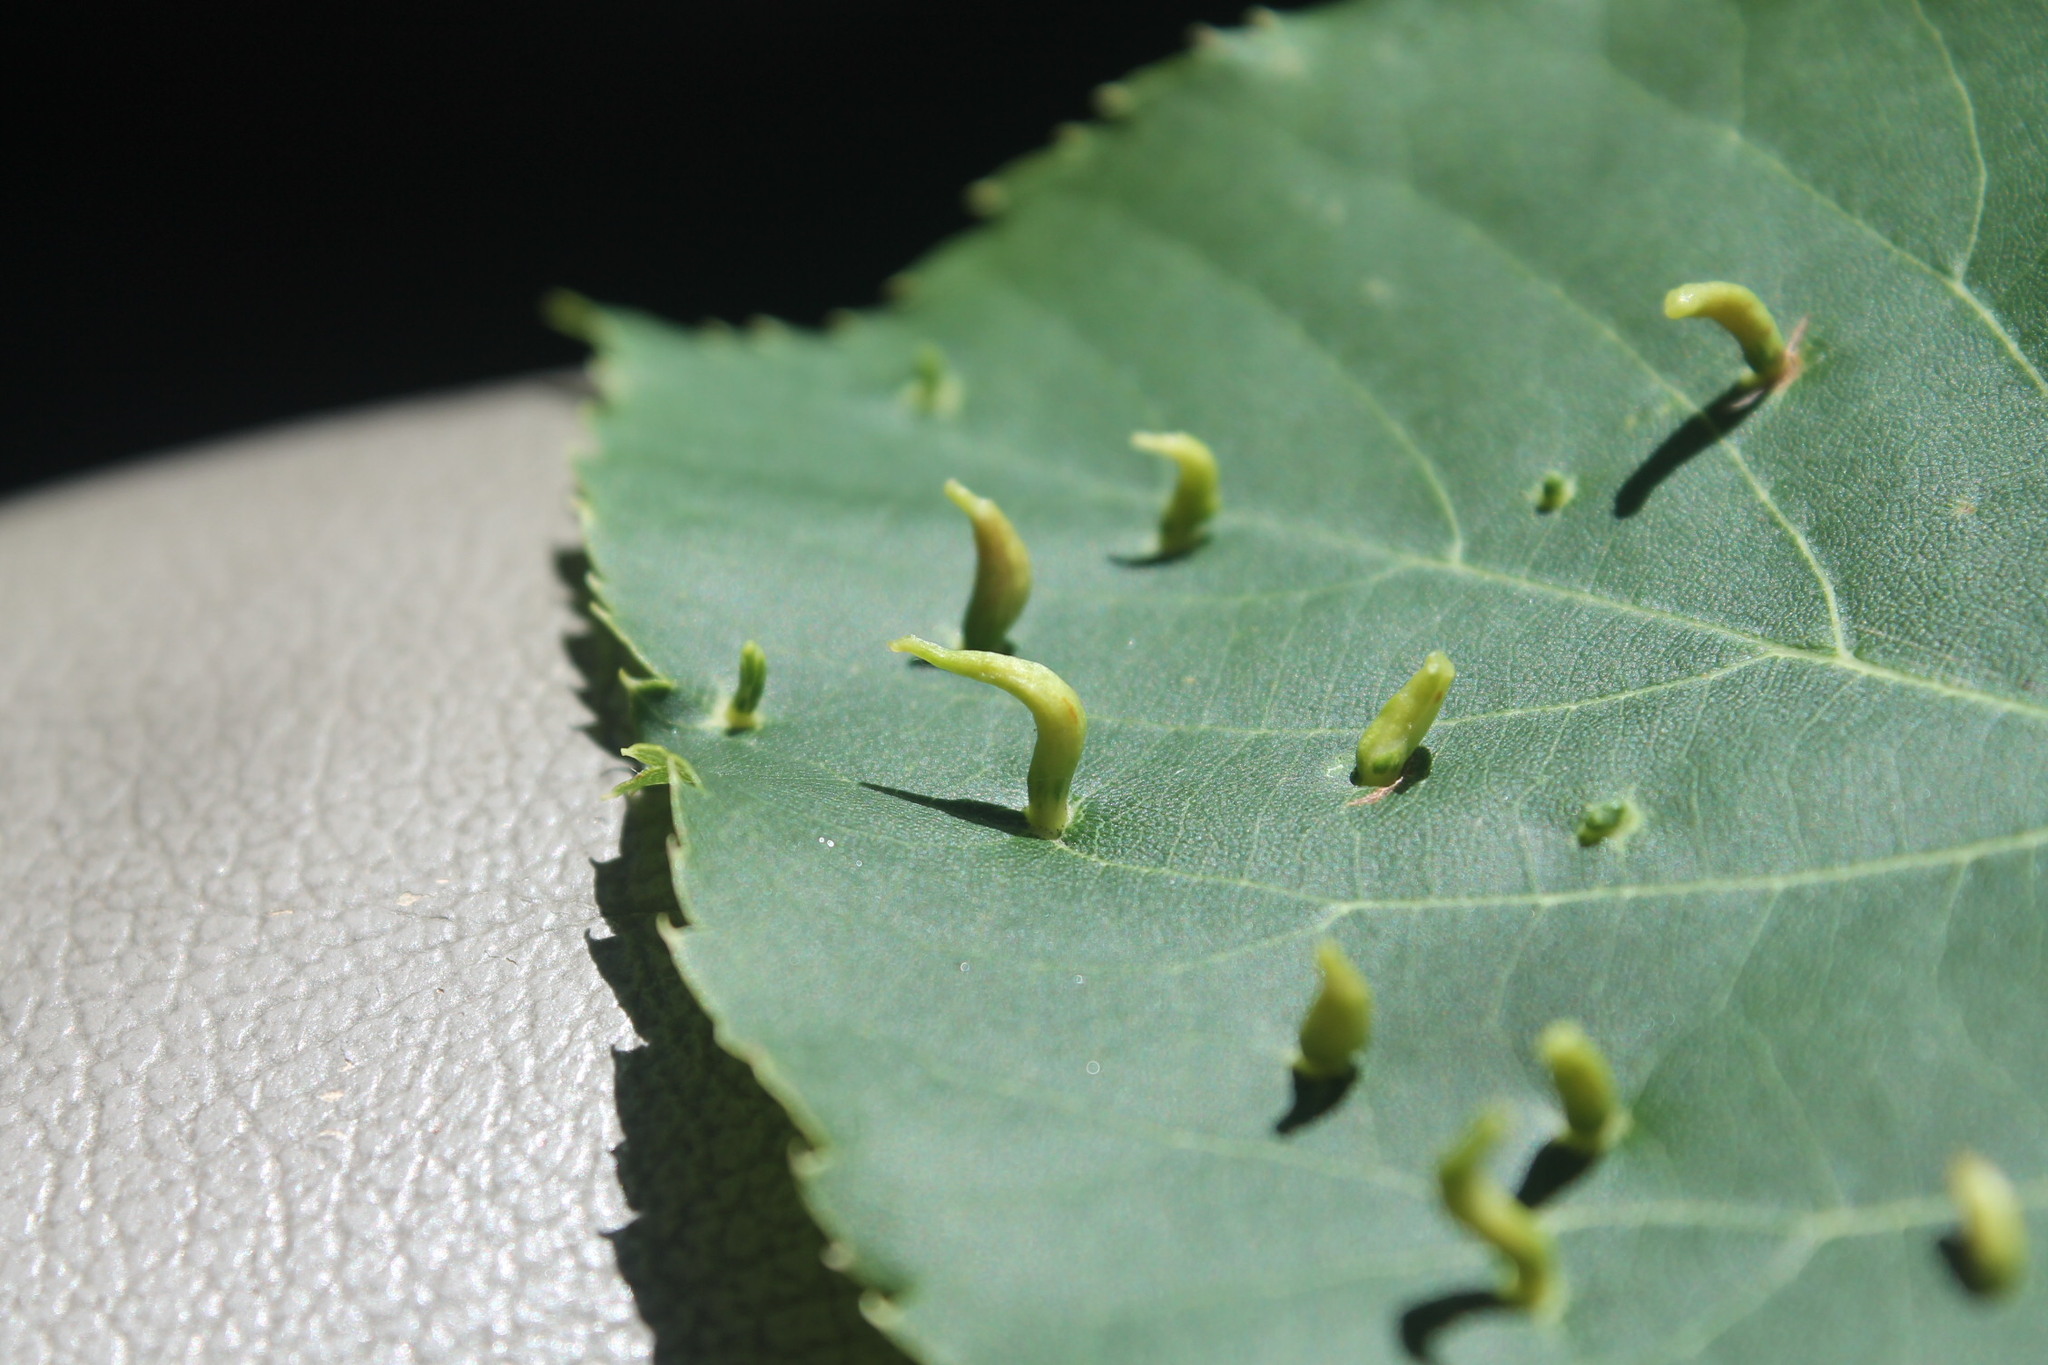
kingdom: Animalia
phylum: Arthropoda
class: Arachnida
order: Trombidiformes
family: Eriophyidae
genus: Eriophyes
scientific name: Eriophyes tiliae
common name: Red nail gall mite
